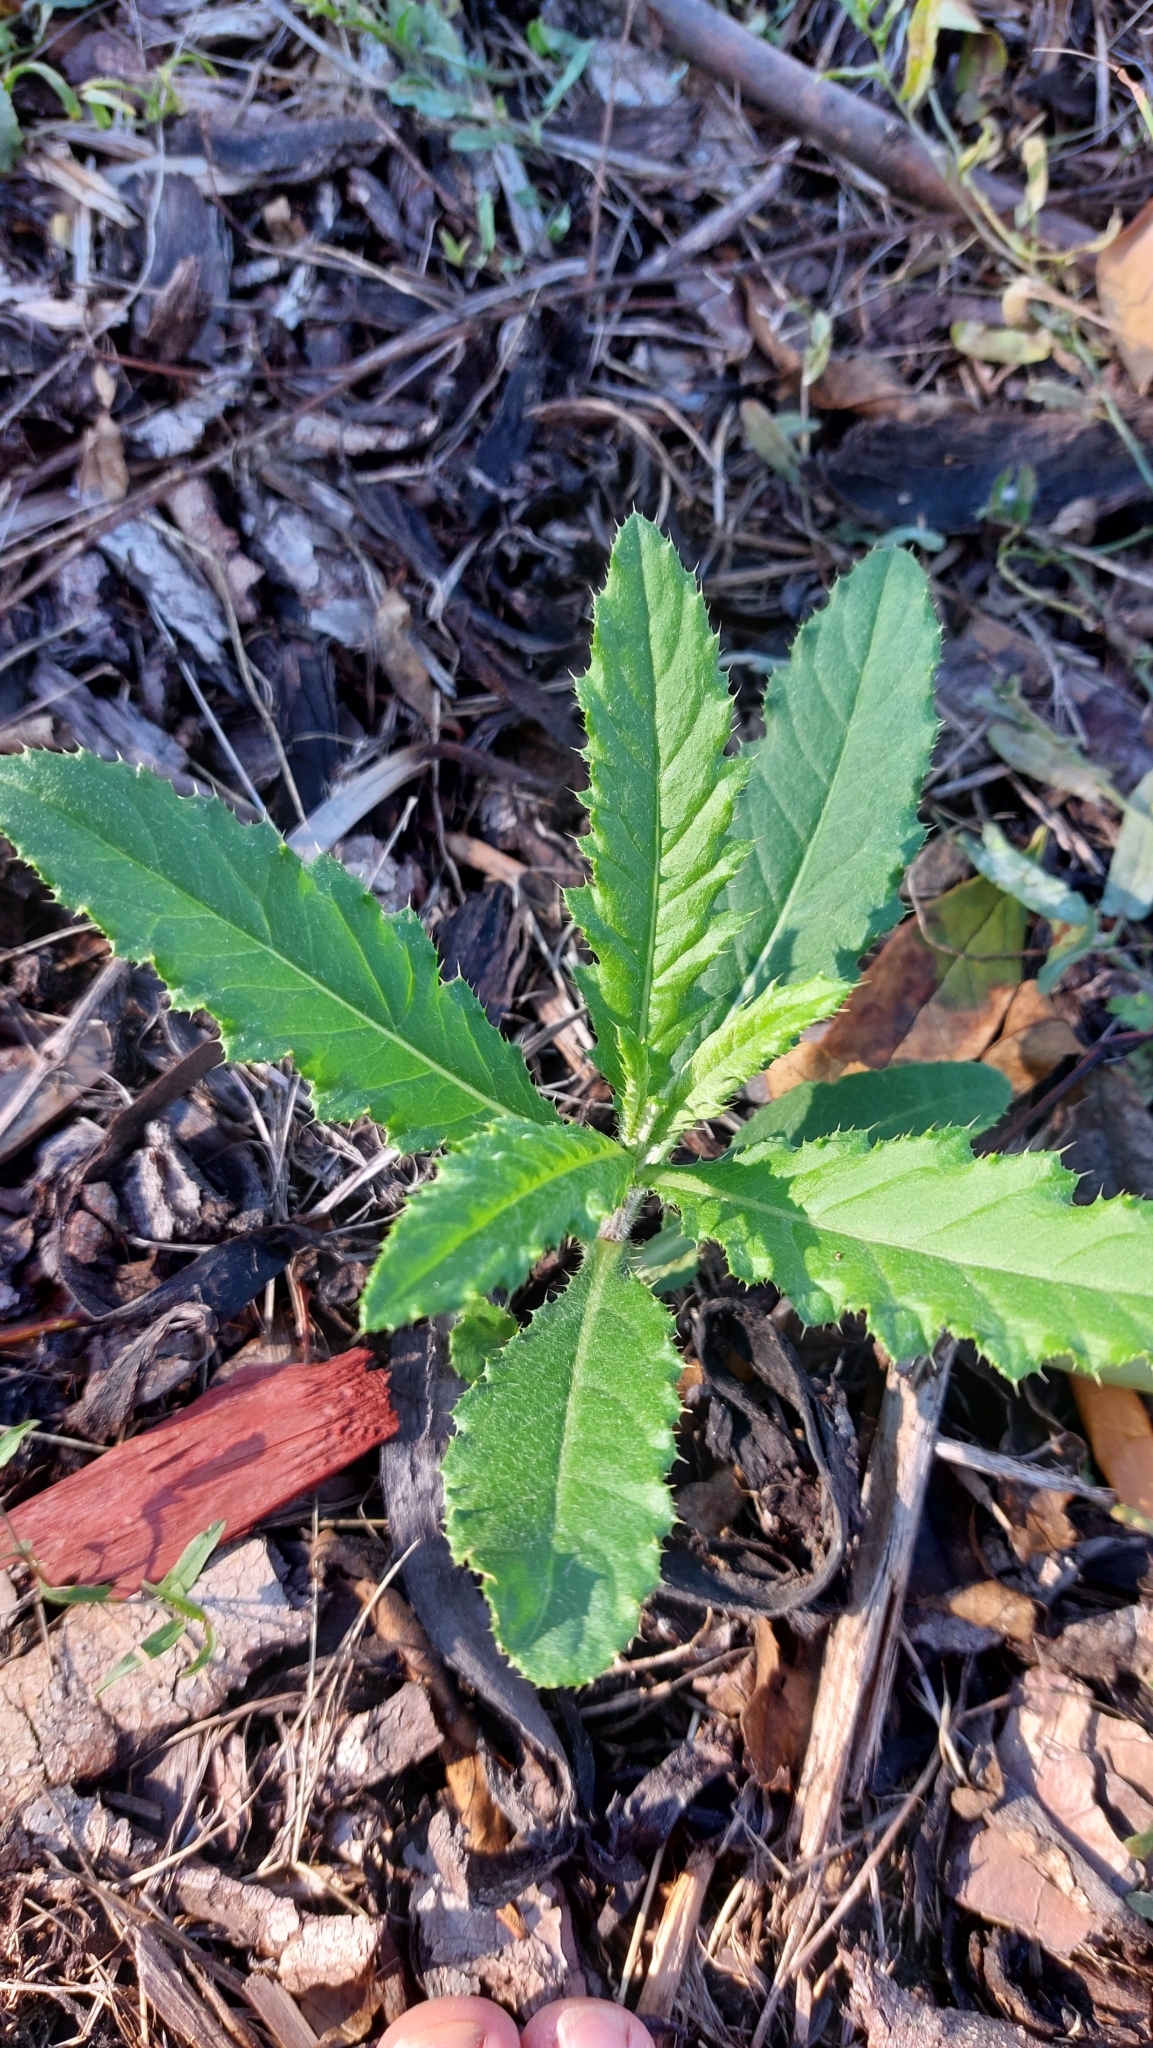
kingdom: Plantae
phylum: Tracheophyta
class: Magnoliopsida
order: Asterales
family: Asteraceae
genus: Cirsium
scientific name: Cirsium arvense
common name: Creeping thistle
